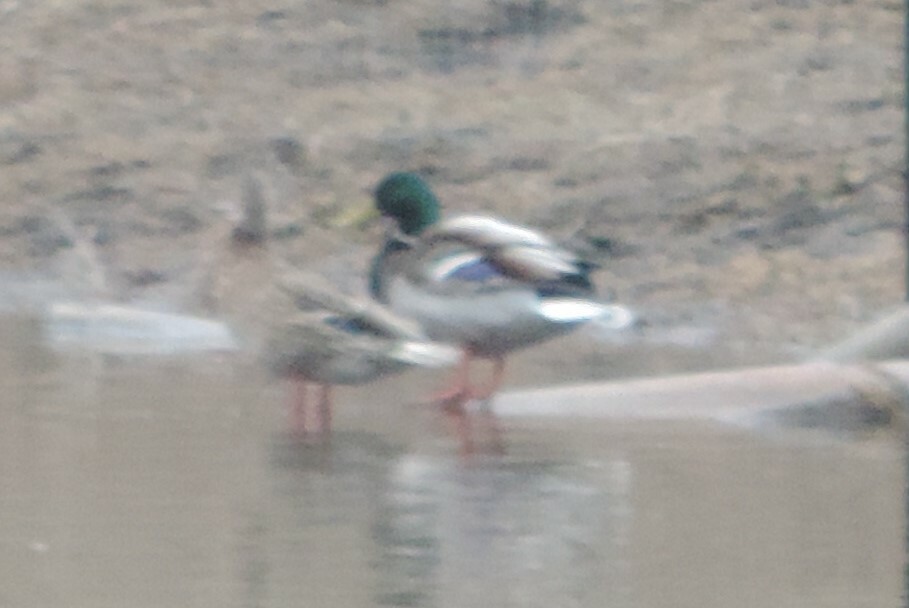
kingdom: Animalia
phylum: Chordata
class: Aves
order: Anseriformes
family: Anatidae
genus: Anas
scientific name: Anas platyrhynchos
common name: Mallard
